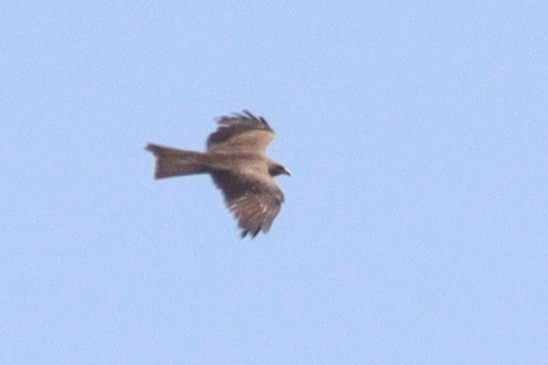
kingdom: Animalia
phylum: Chordata
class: Aves
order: Accipitriformes
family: Accipitridae
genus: Milvus
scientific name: Milvus migrans
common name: Black kite
